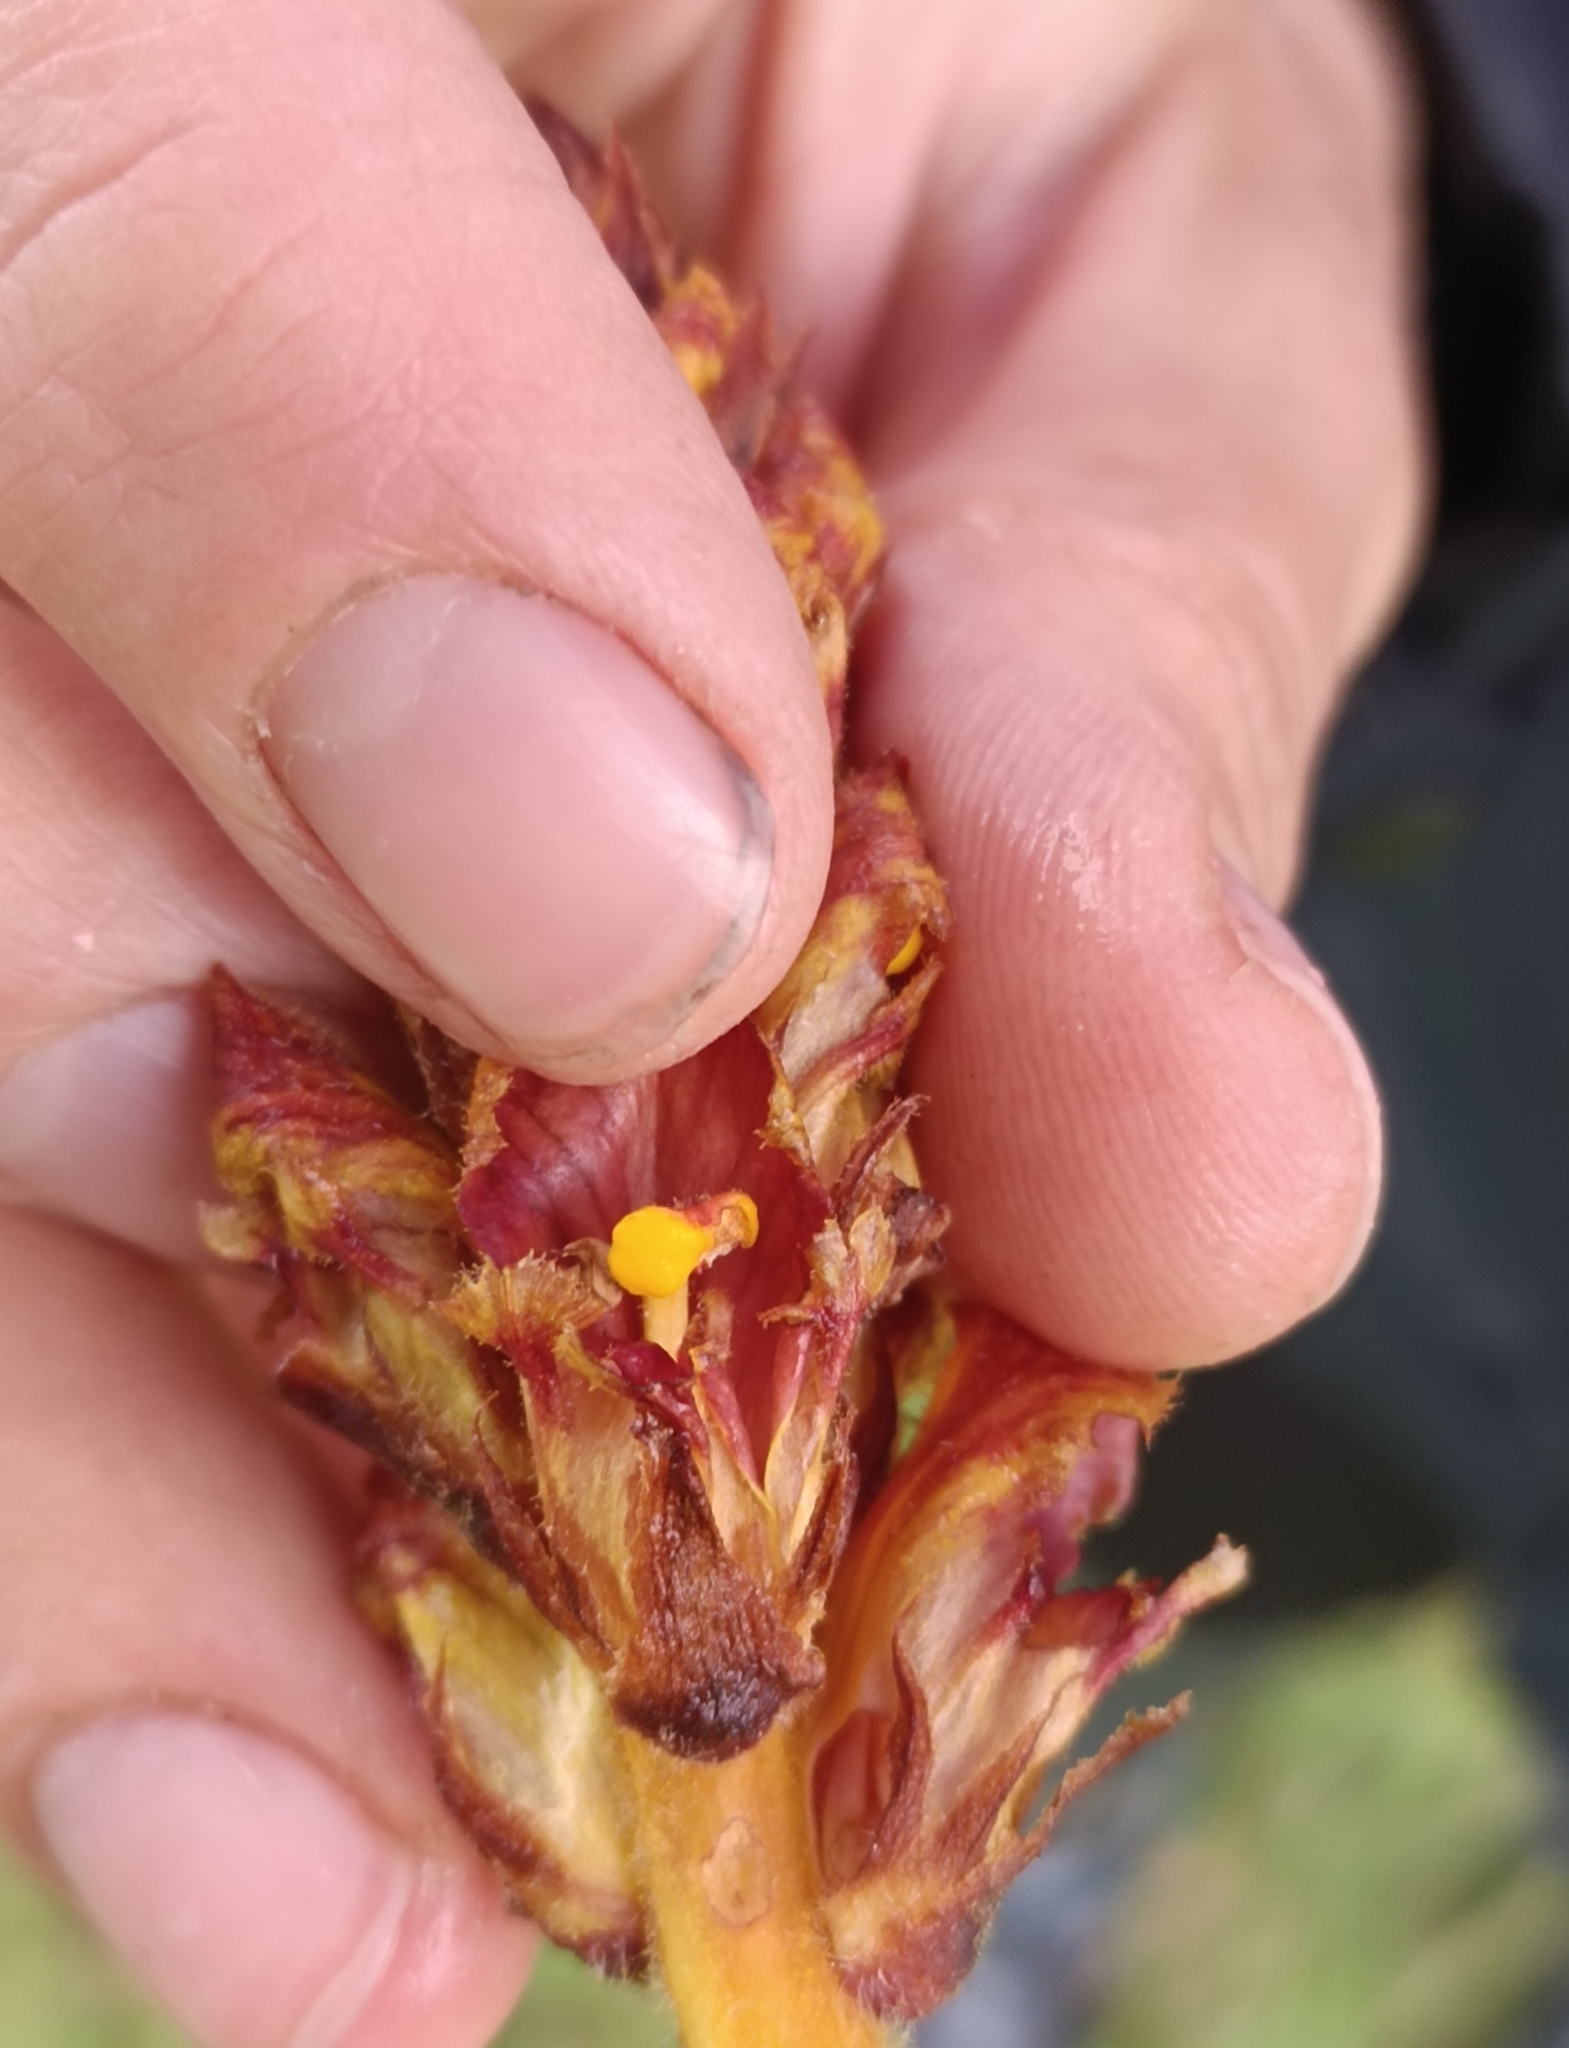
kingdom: Plantae
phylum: Tracheophyta
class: Magnoliopsida
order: Lamiales
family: Orobanchaceae
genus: Orobanche
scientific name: Orobanche gracilis
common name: Slender broomrape
